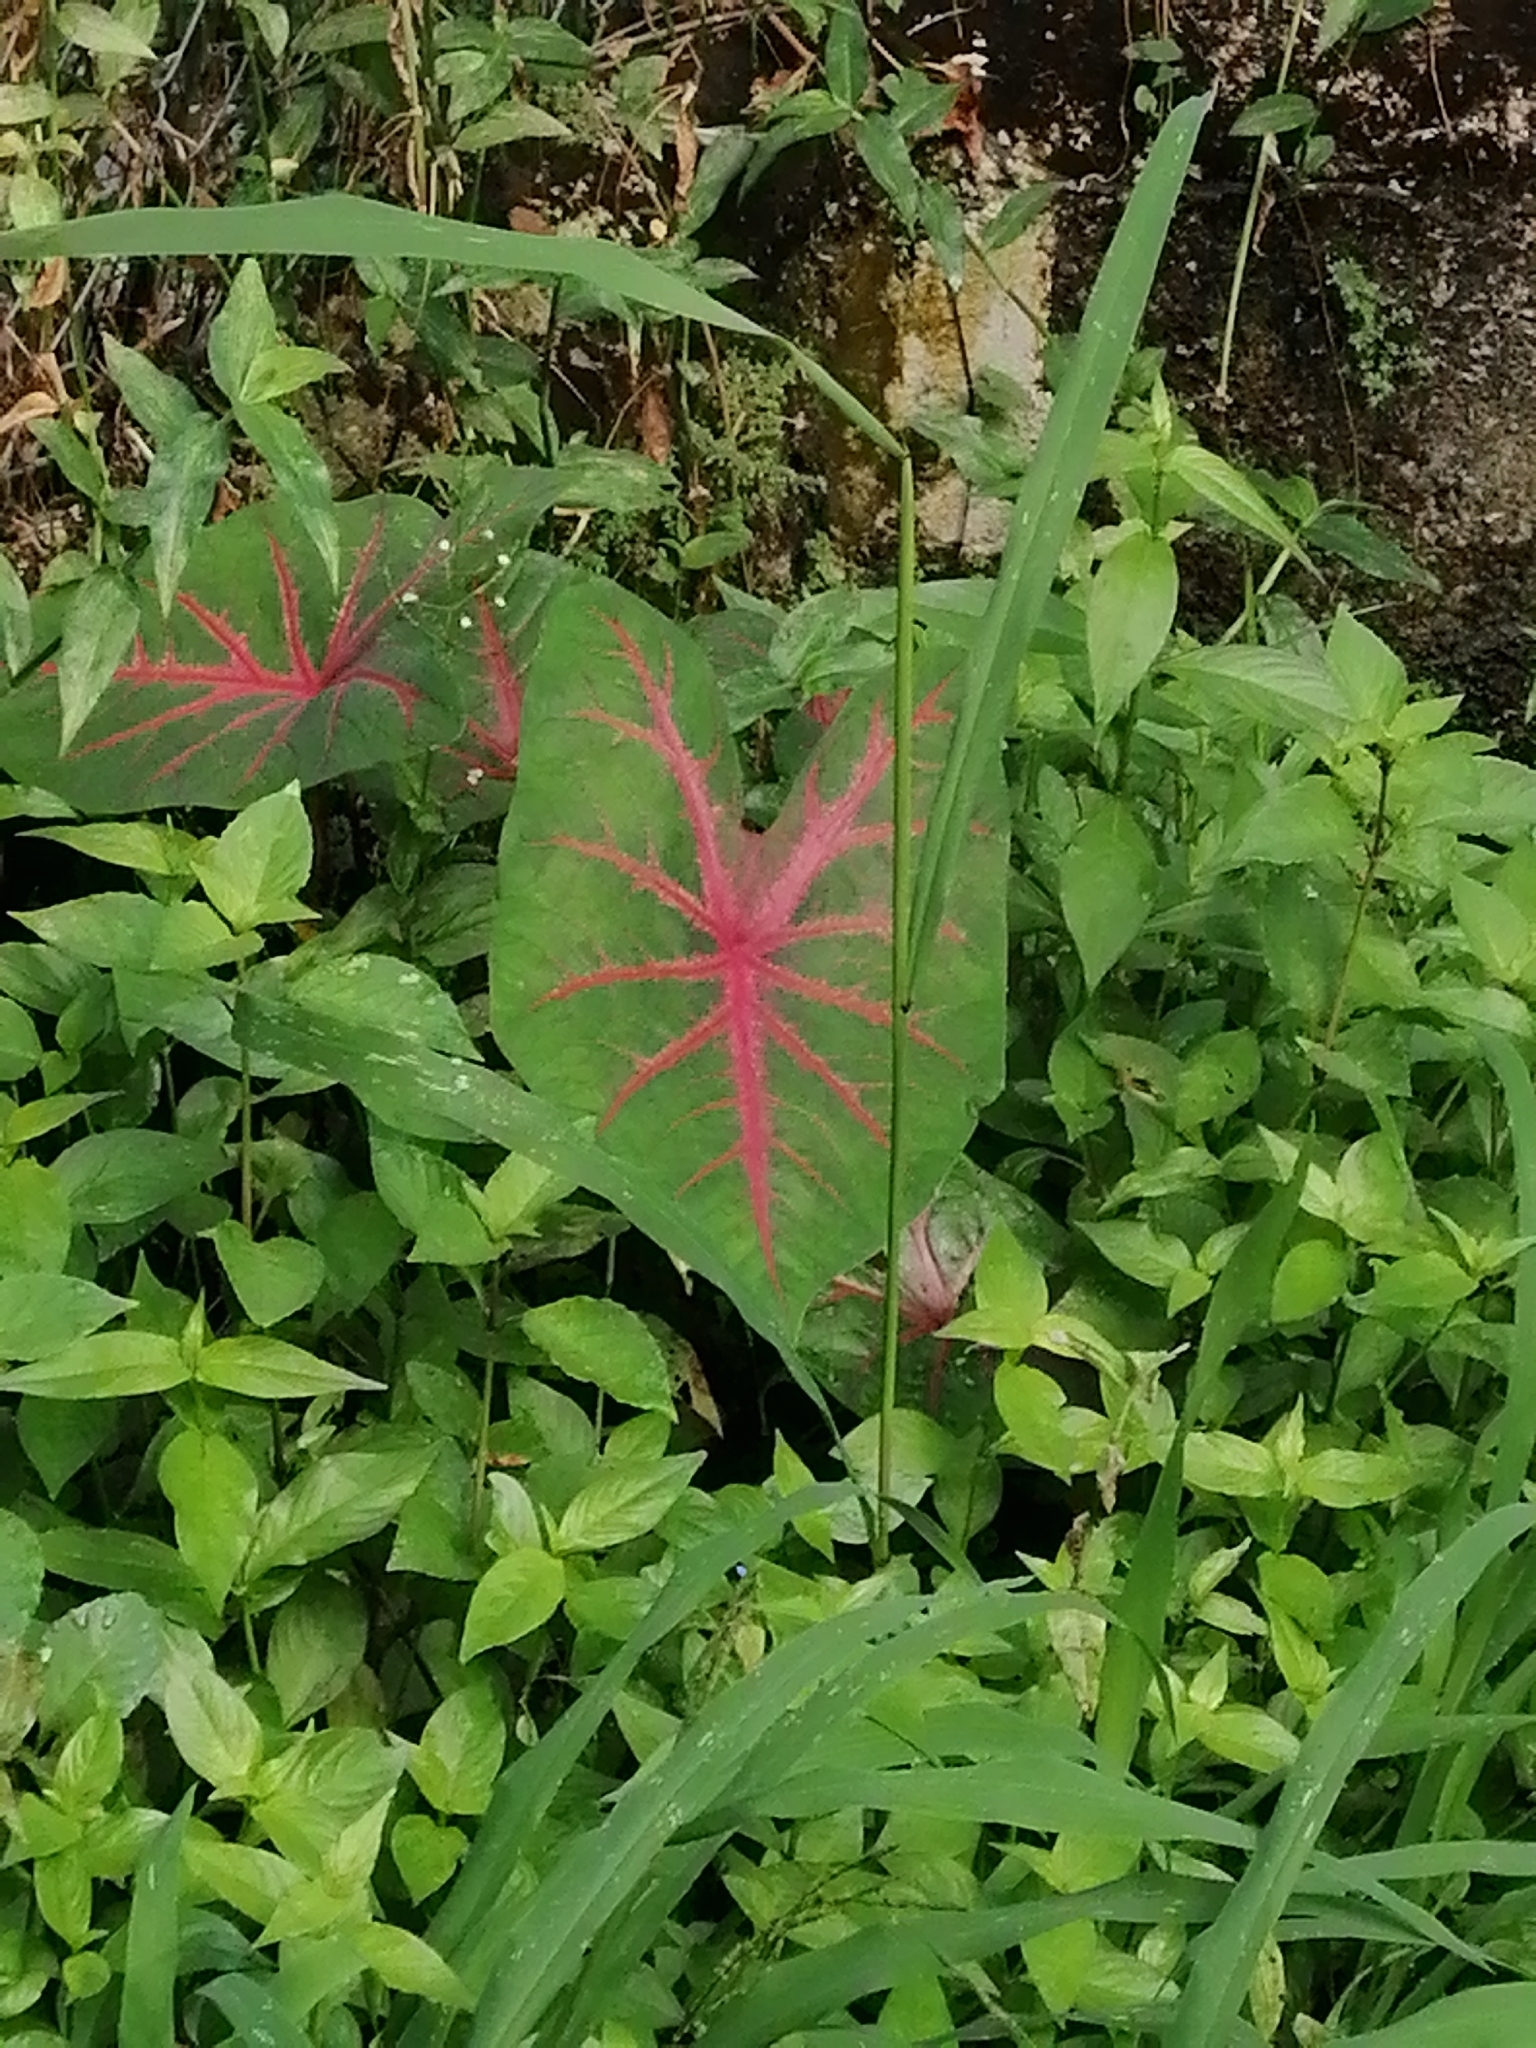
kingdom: Plantae
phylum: Tracheophyta
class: Liliopsida
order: Alismatales
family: Araceae
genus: Caladium
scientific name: Caladium bicolor
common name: Artist's pallet
